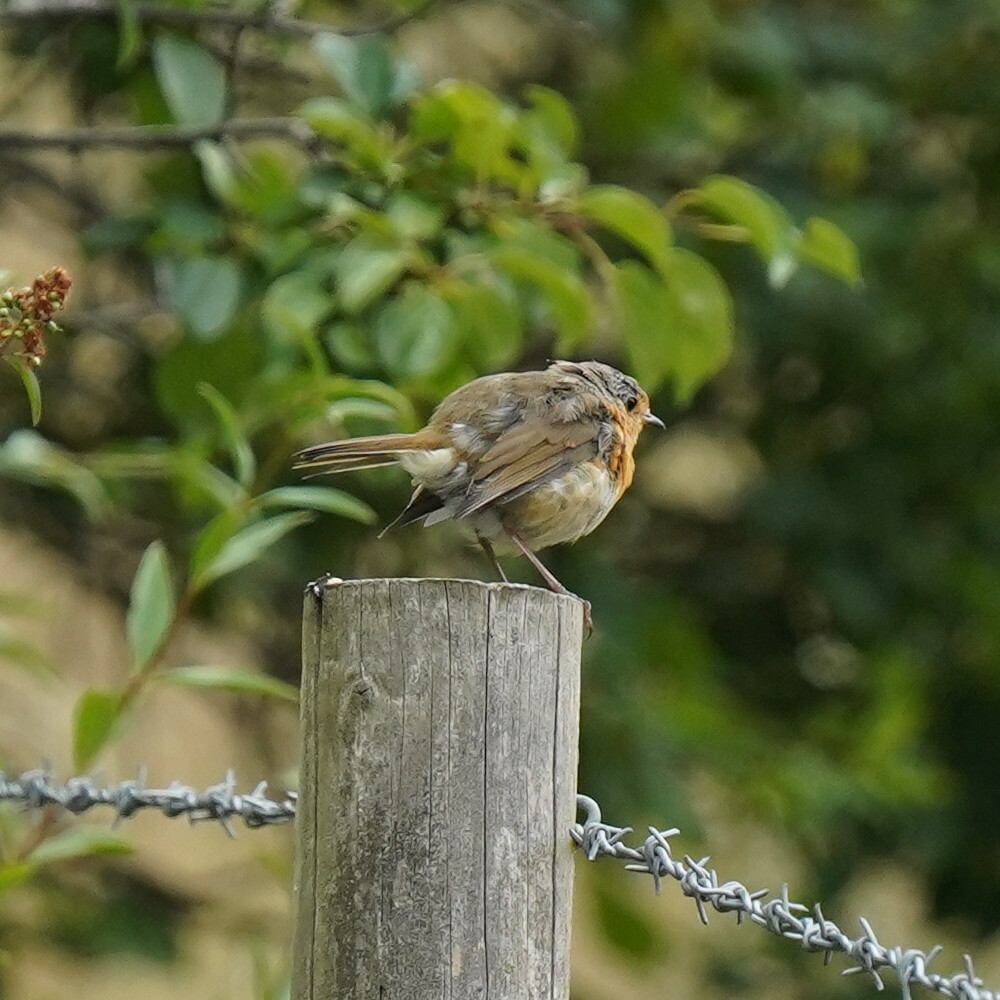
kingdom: Animalia
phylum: Chordata
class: Aves
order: Passeriformes
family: Muscicapidae
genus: Erithacus
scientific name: Erithacus rubecula
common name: European robin
